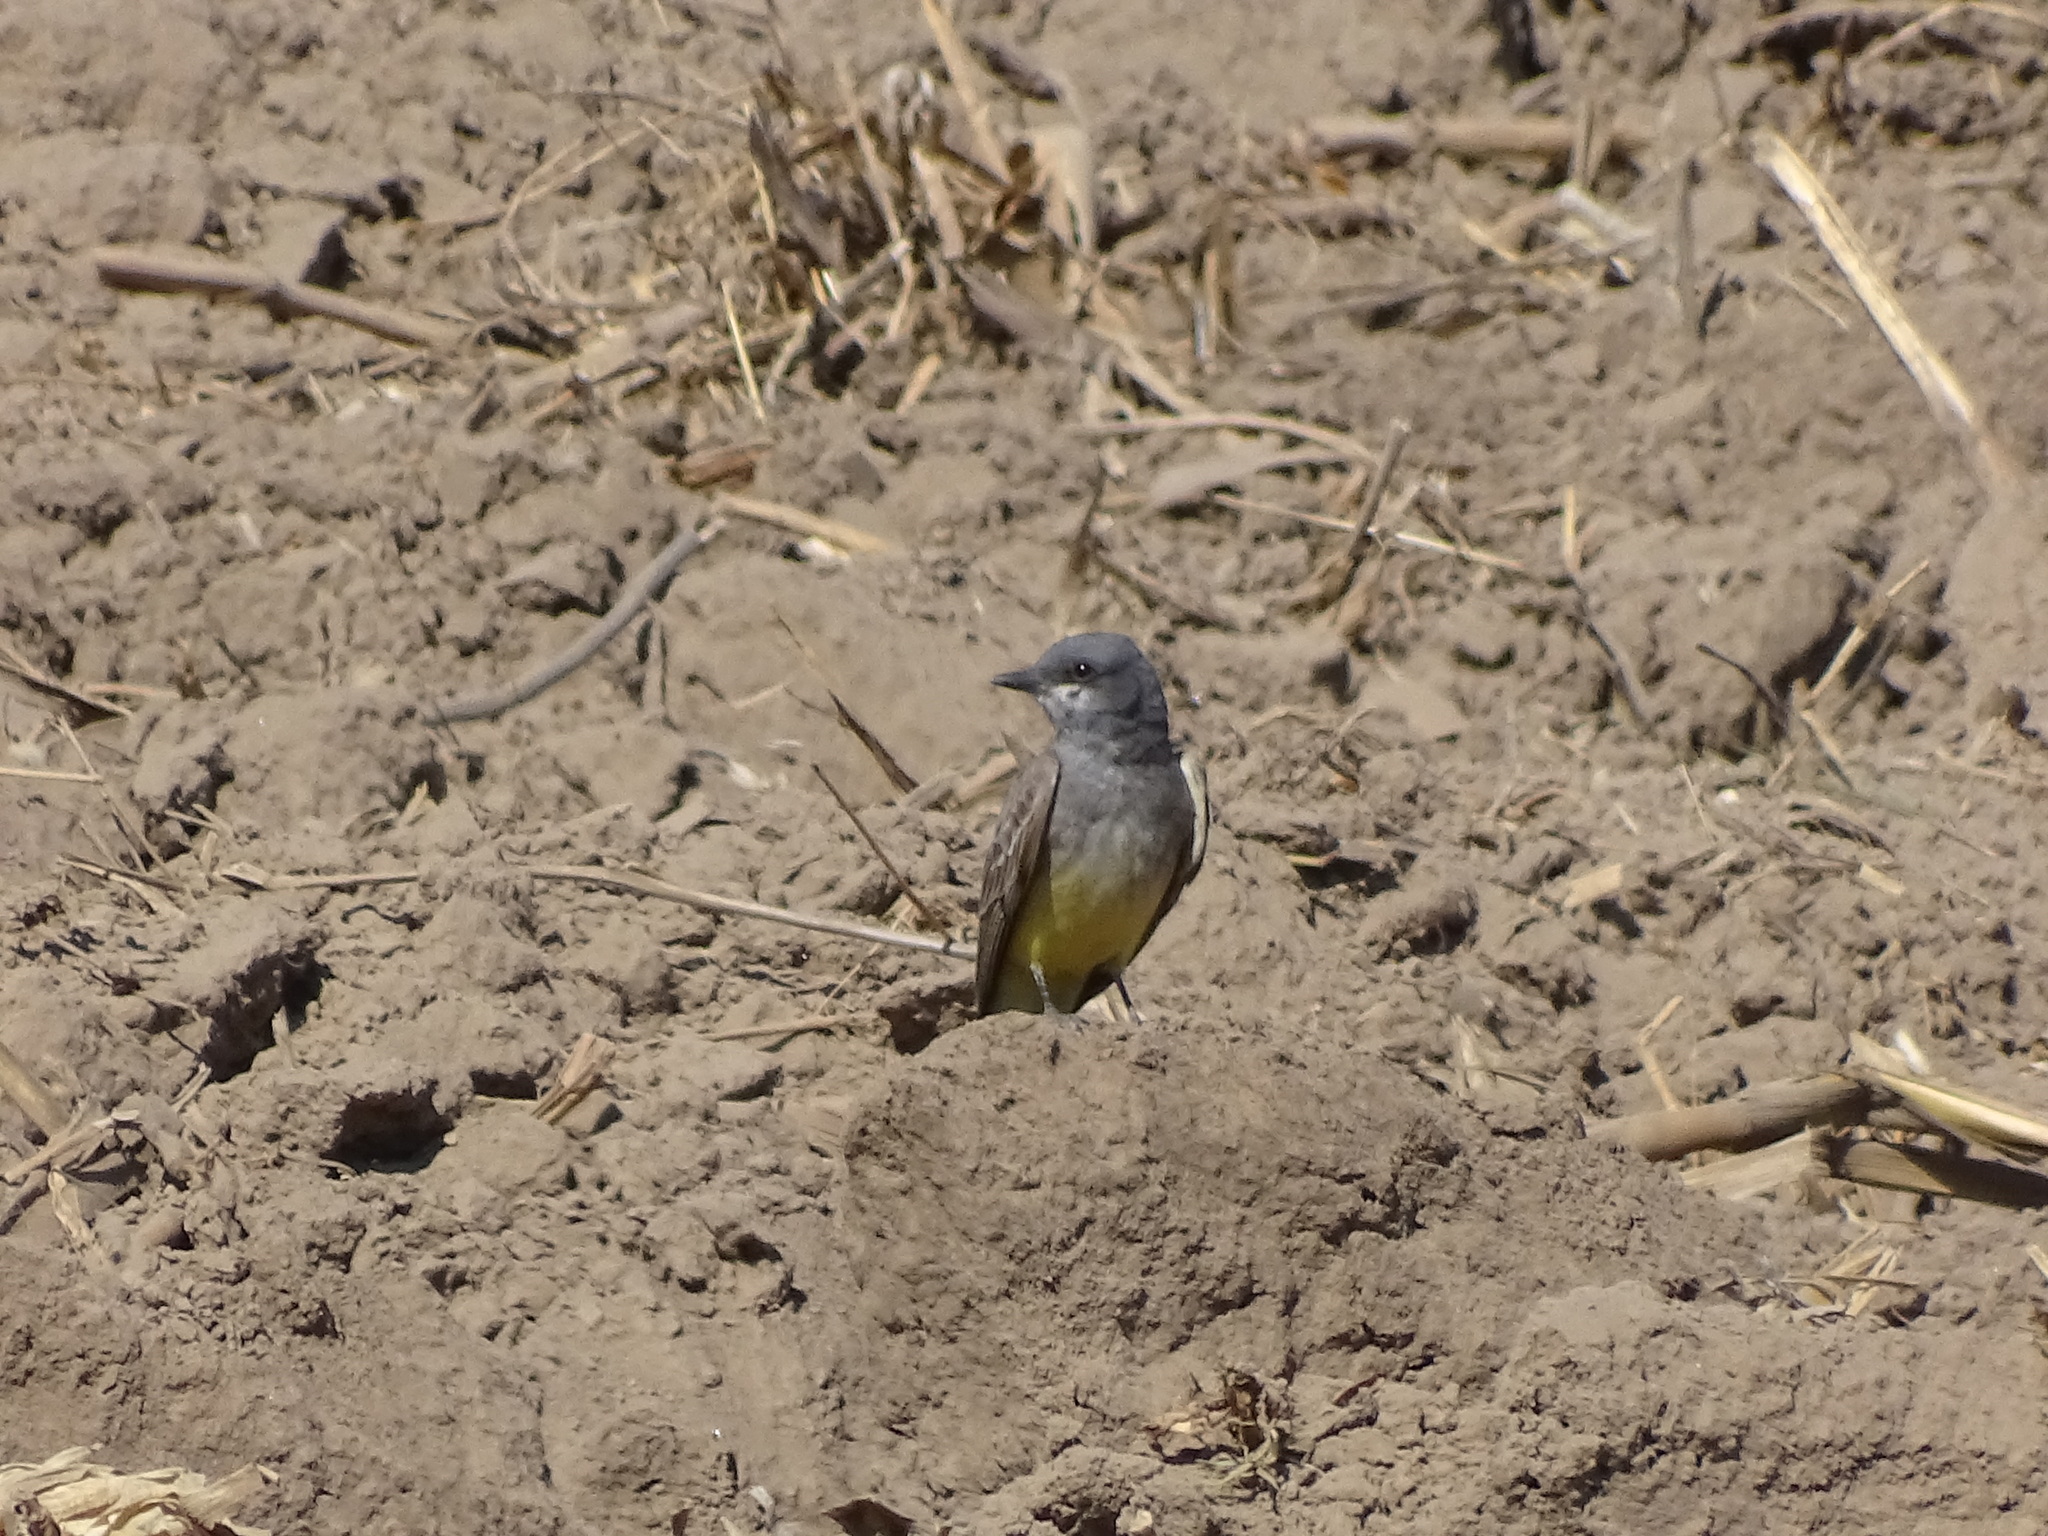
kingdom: Animalia
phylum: Chordata
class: Aves
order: Passeriformes
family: Tyrannidae
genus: Tyrannus
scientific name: Tyrannus vociferans
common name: Cassin's kingbird
